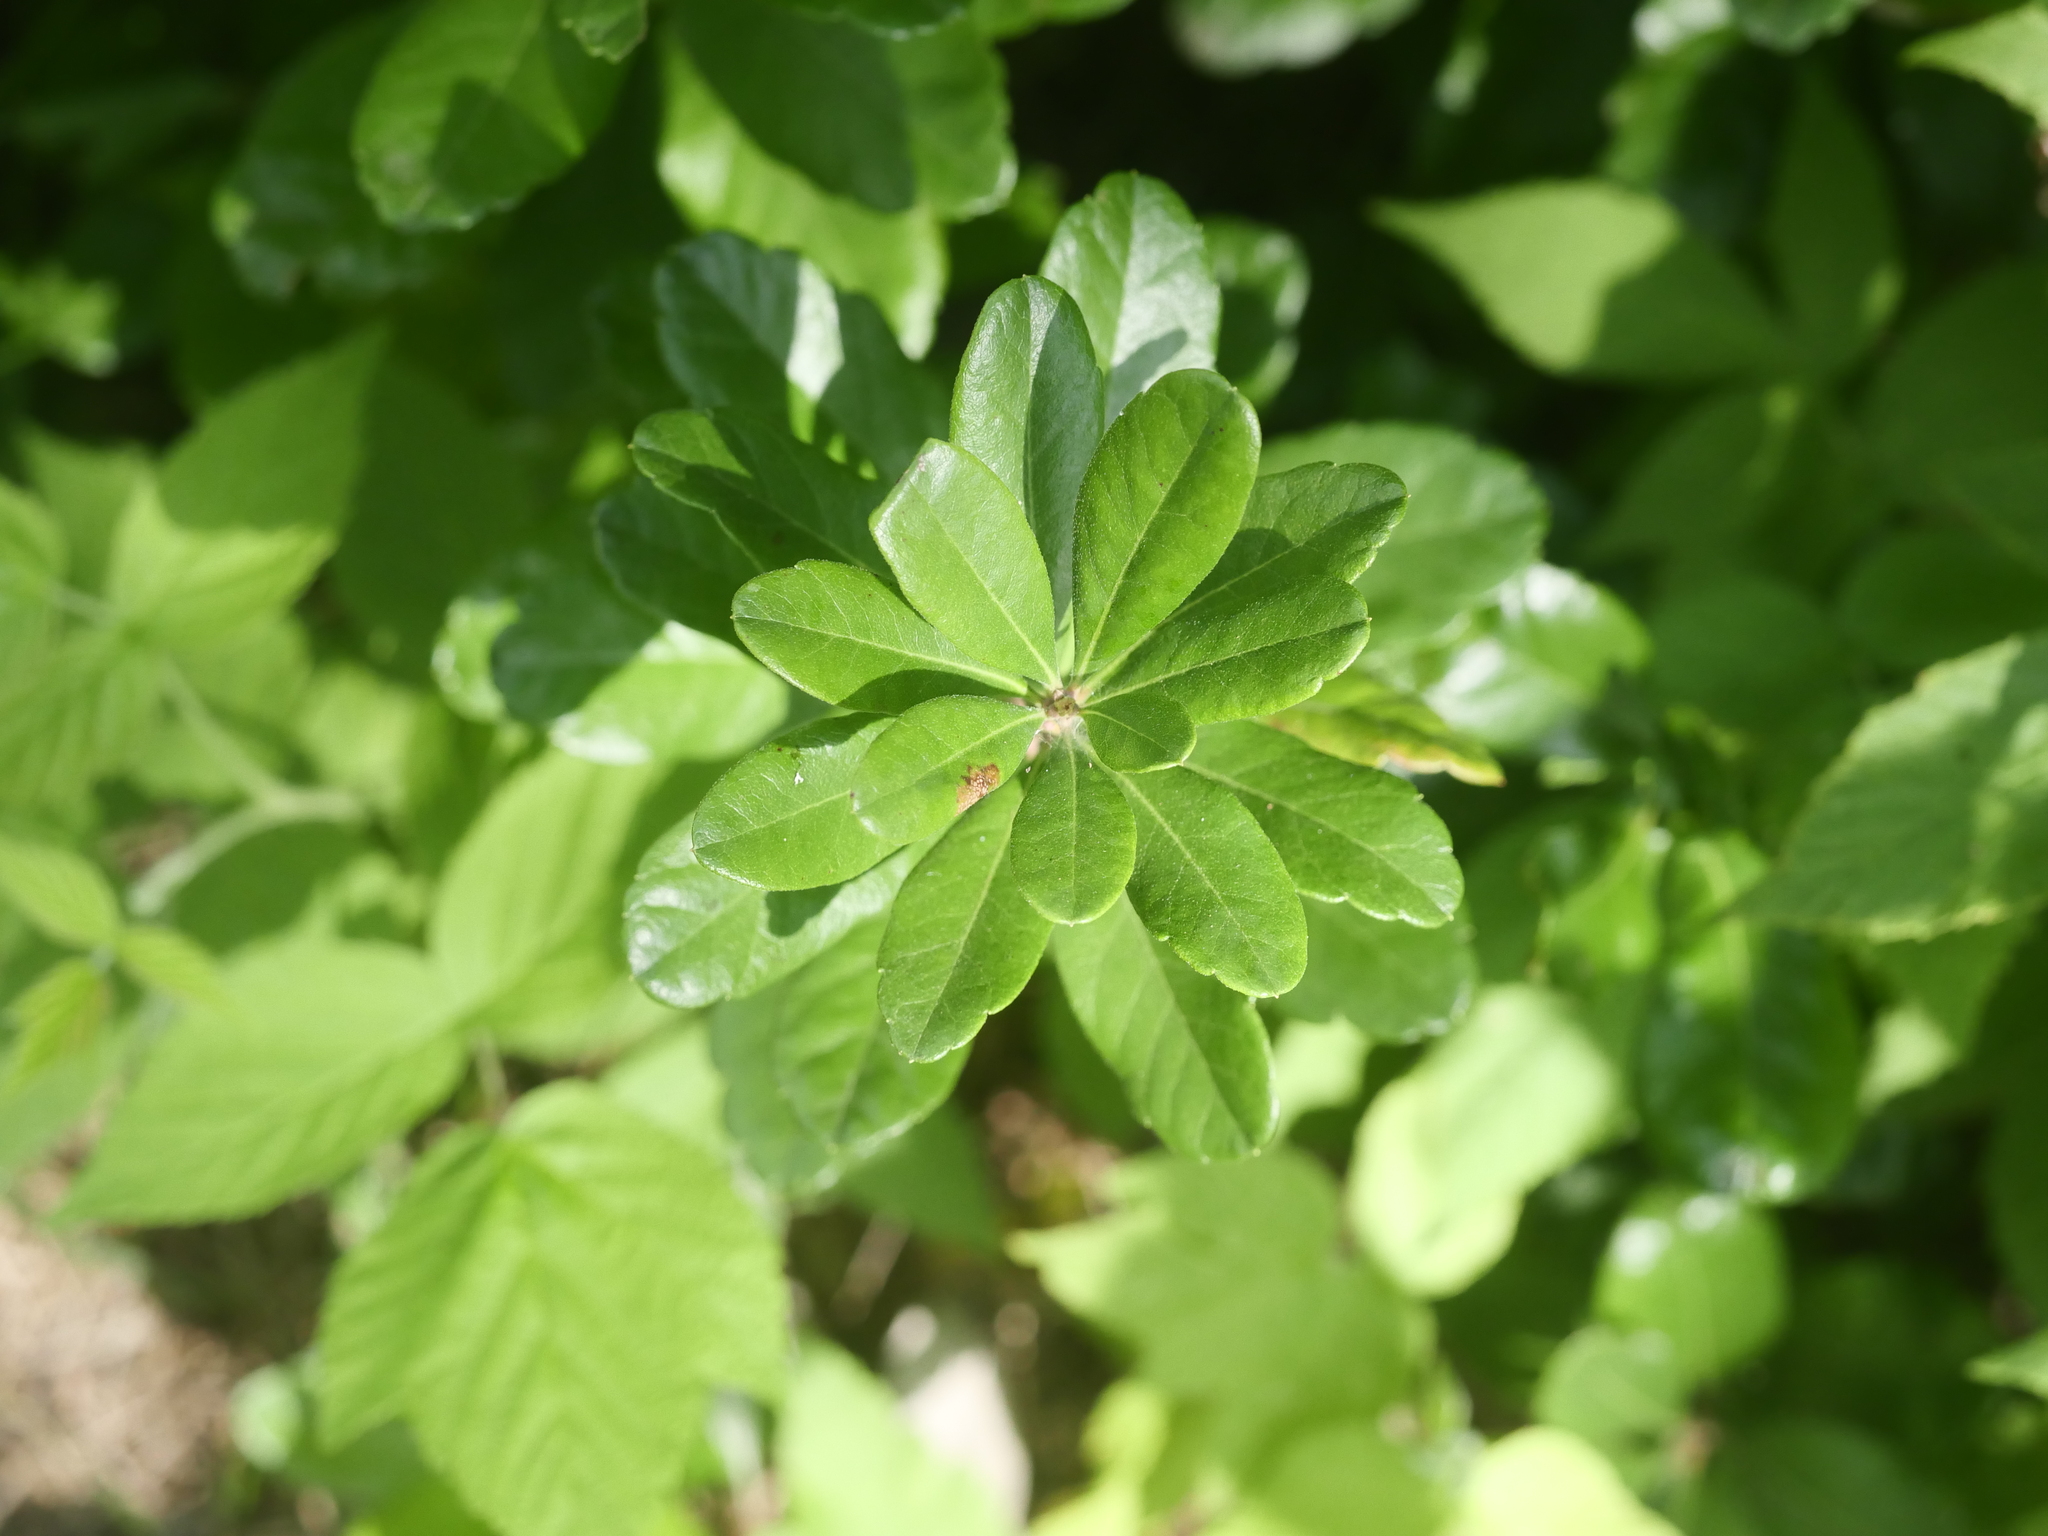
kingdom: Plantae
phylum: Tracheophyta
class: Magnoliopsida
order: Fagales
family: Myricaceae
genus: Morella
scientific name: Morella pensylvanica
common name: Northern bayberry
